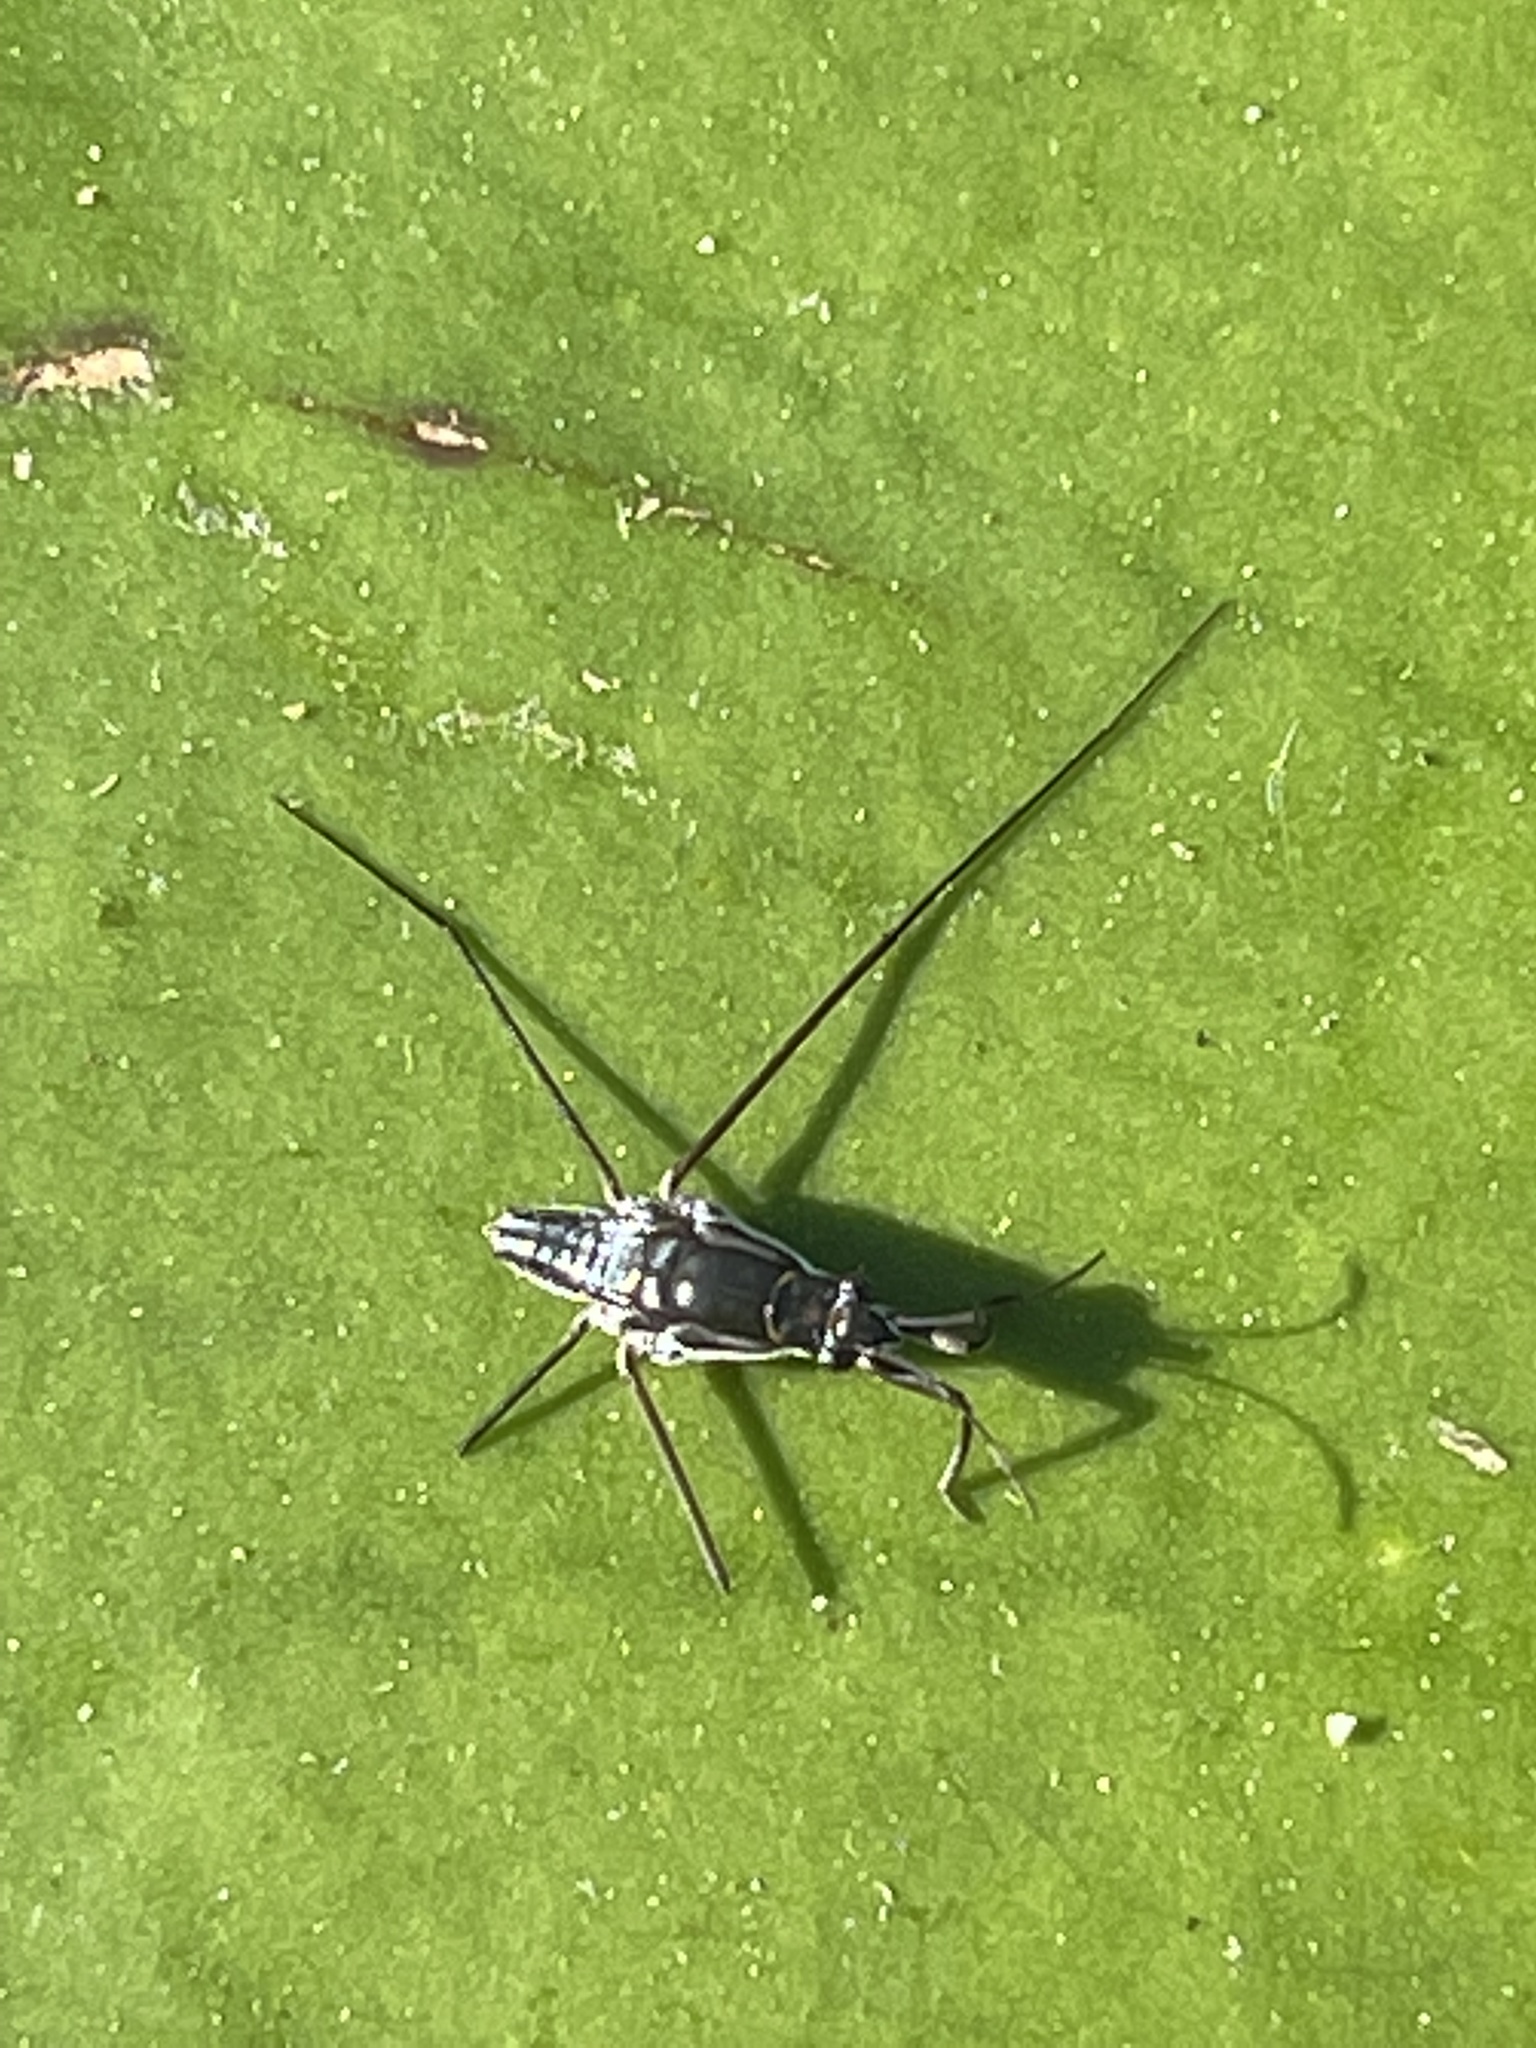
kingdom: Animalia
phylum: Arthropoda
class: Insecta
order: Hemiptera
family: Gerridae
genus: Neogerris
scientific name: Neogerris hesione
